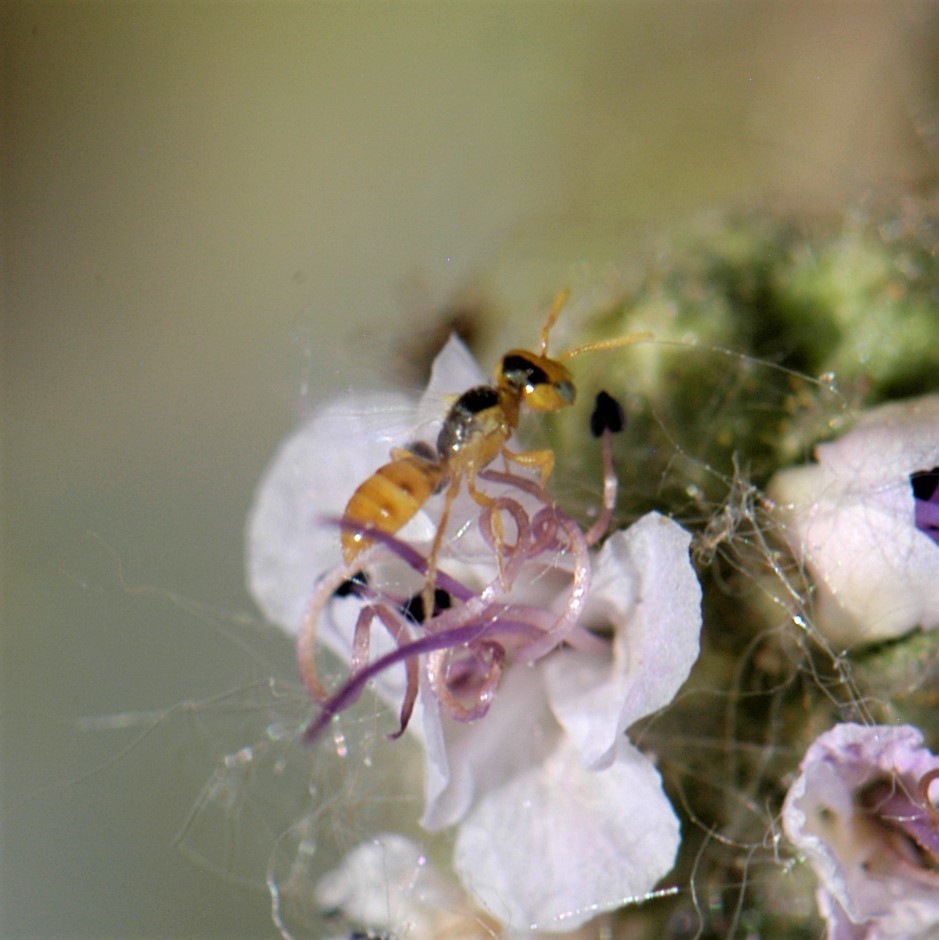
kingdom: Animalia
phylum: Arthropoda
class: Insecta
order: Hymenoptera
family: Andrenidae
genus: Perdita
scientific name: Perdita marcialis
